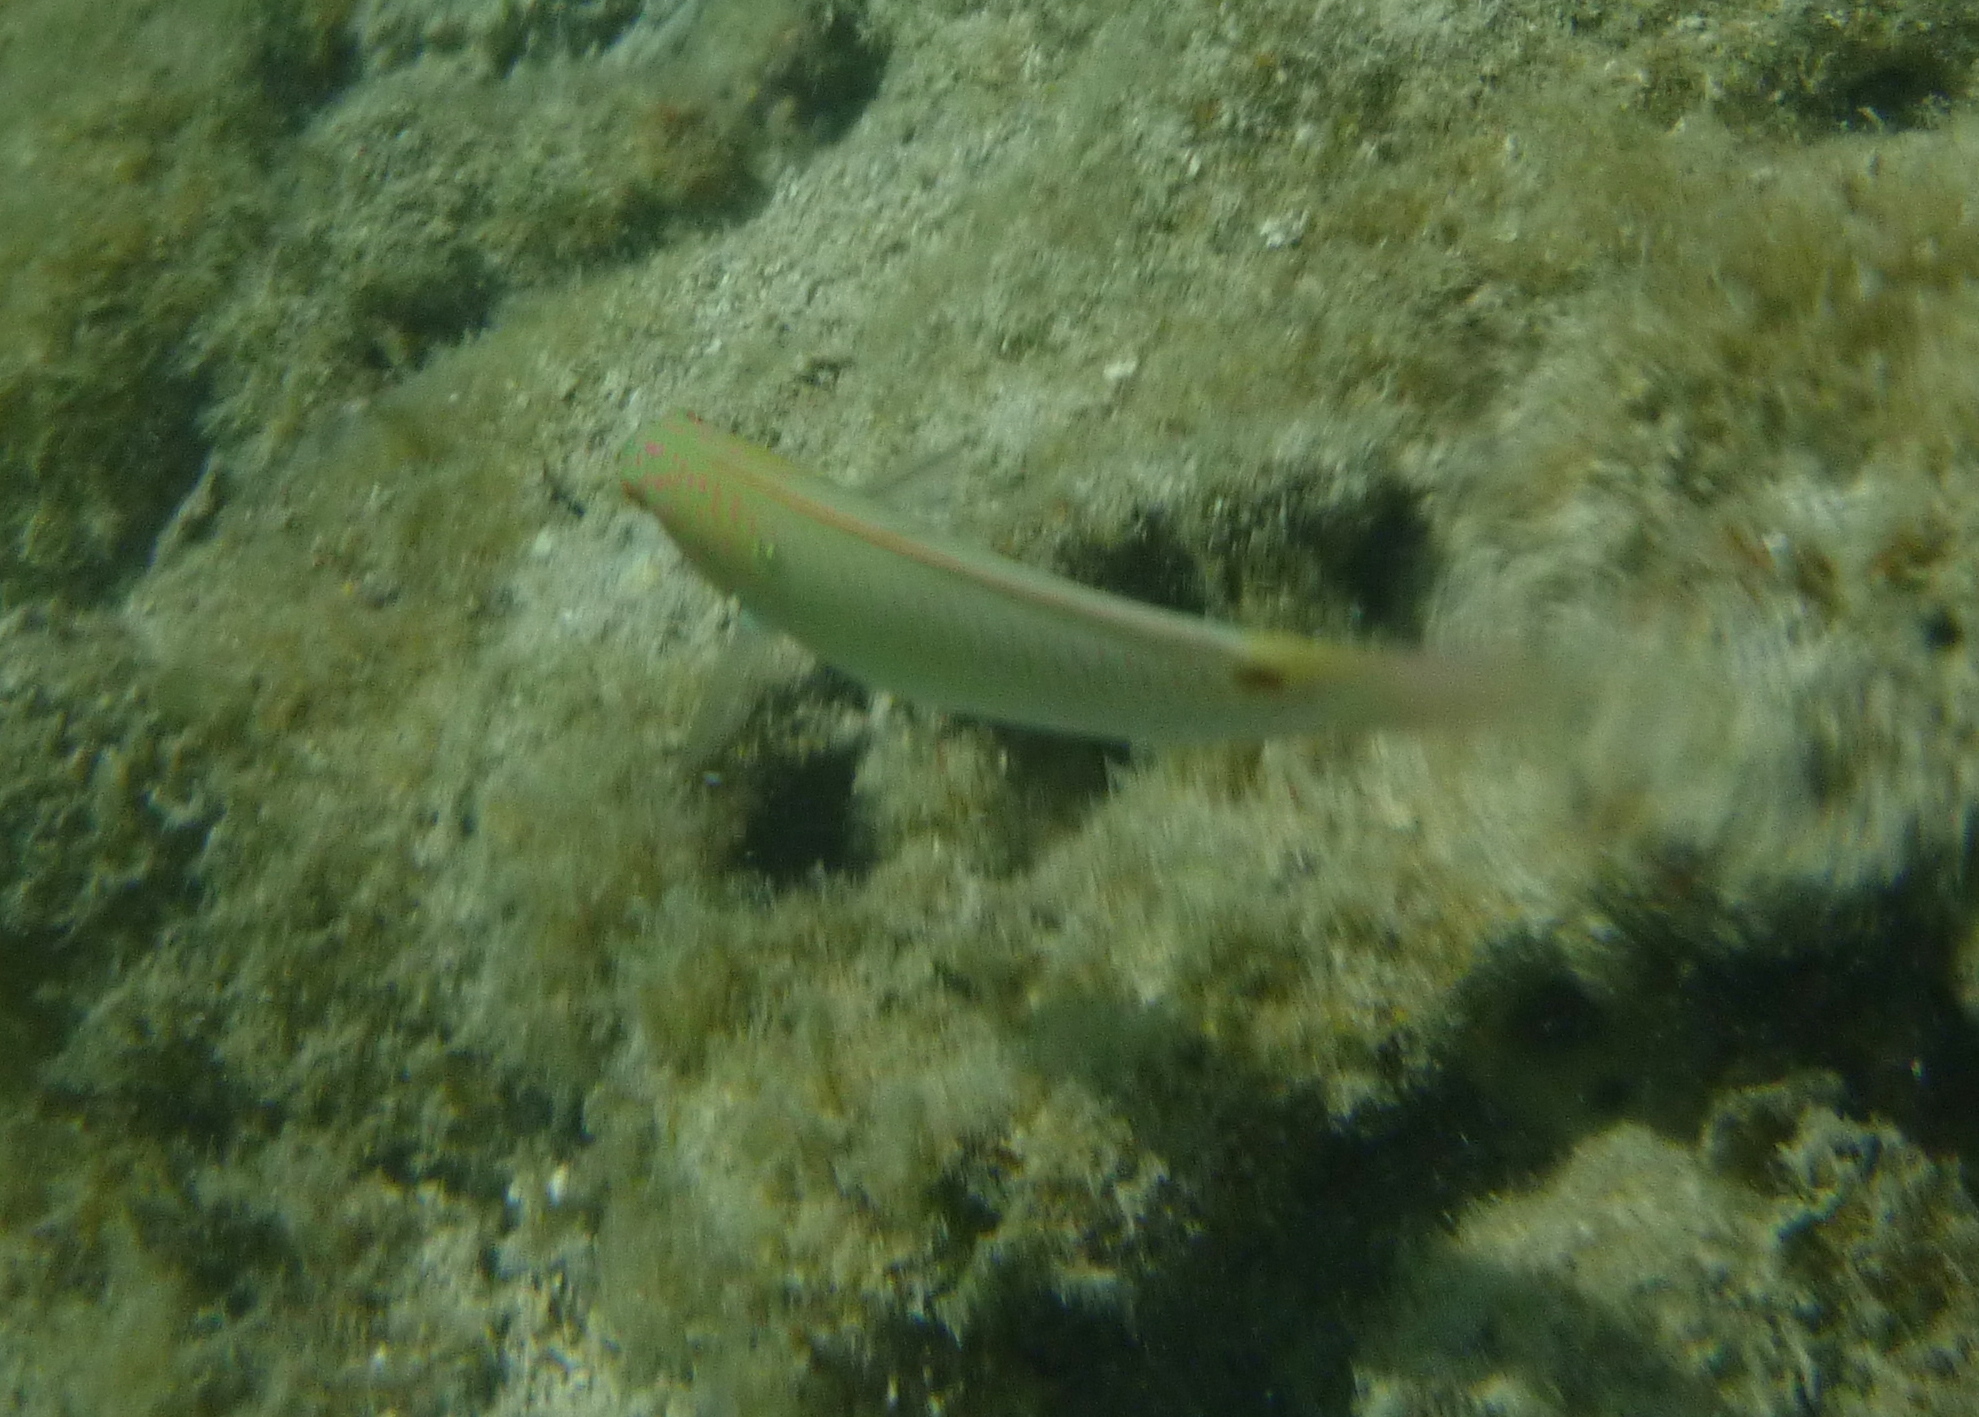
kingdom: Animalia
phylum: Chordata
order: Perciformes
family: Labridae
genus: Halichoeres
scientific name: Halichoeres trimaculatus
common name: Three-spot wrasse
